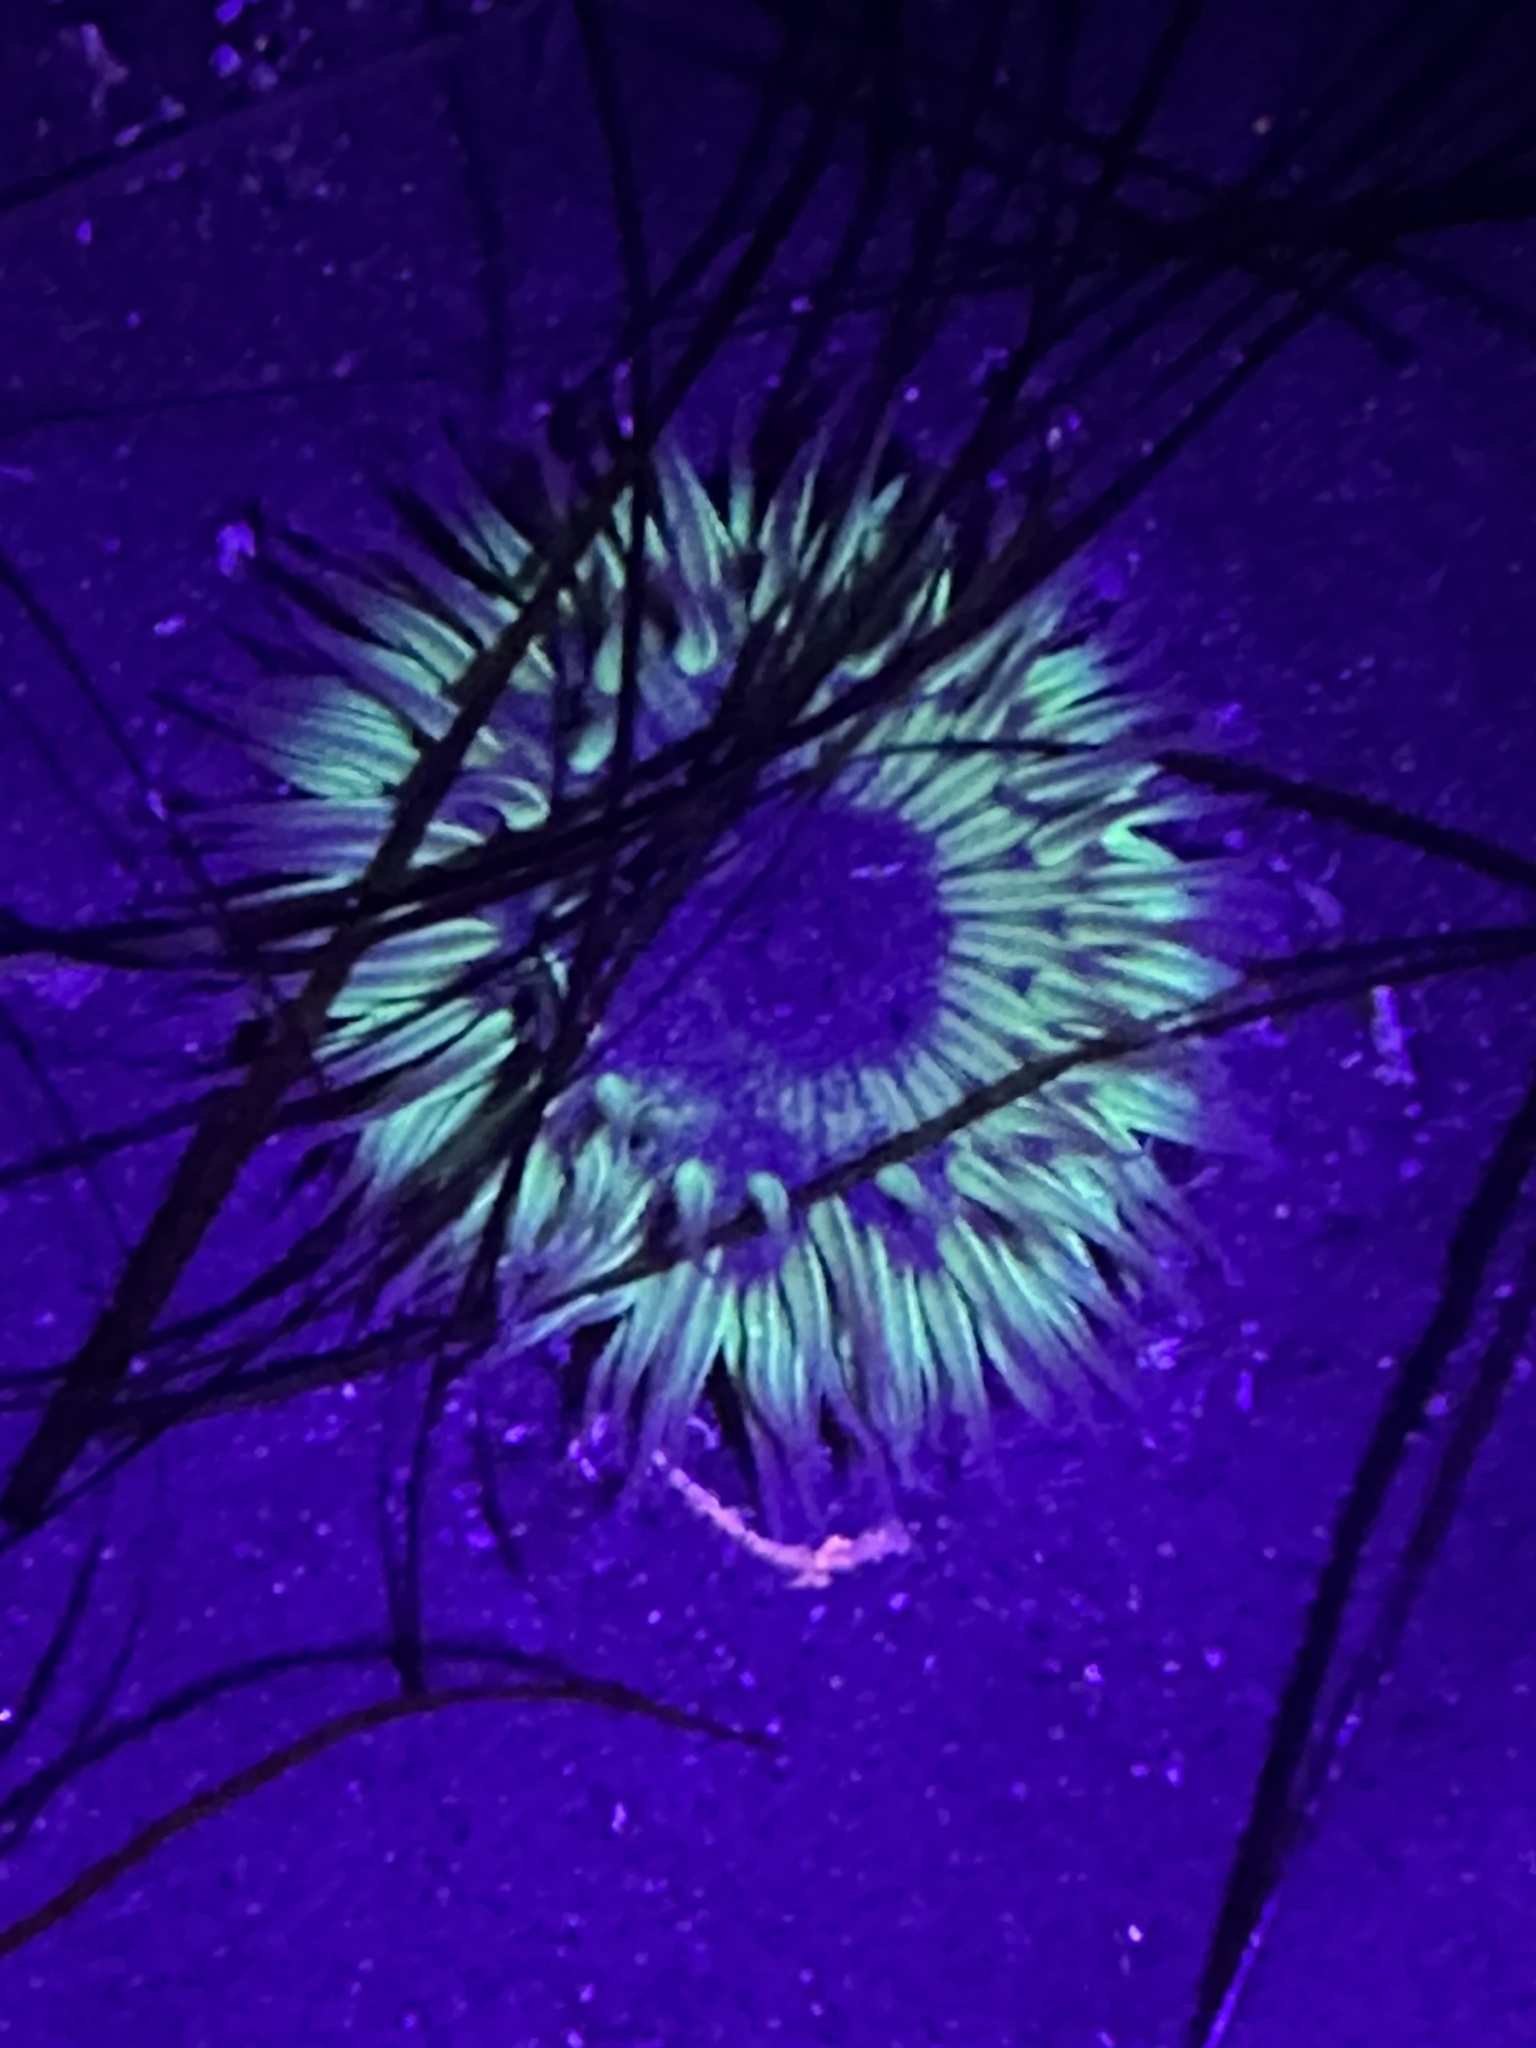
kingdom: Animalia
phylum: Cnidaria
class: Anthozoa
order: Actiniaria
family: Actiniidae
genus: Anthopleura
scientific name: Anthopleura sola
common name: Sun anemone
